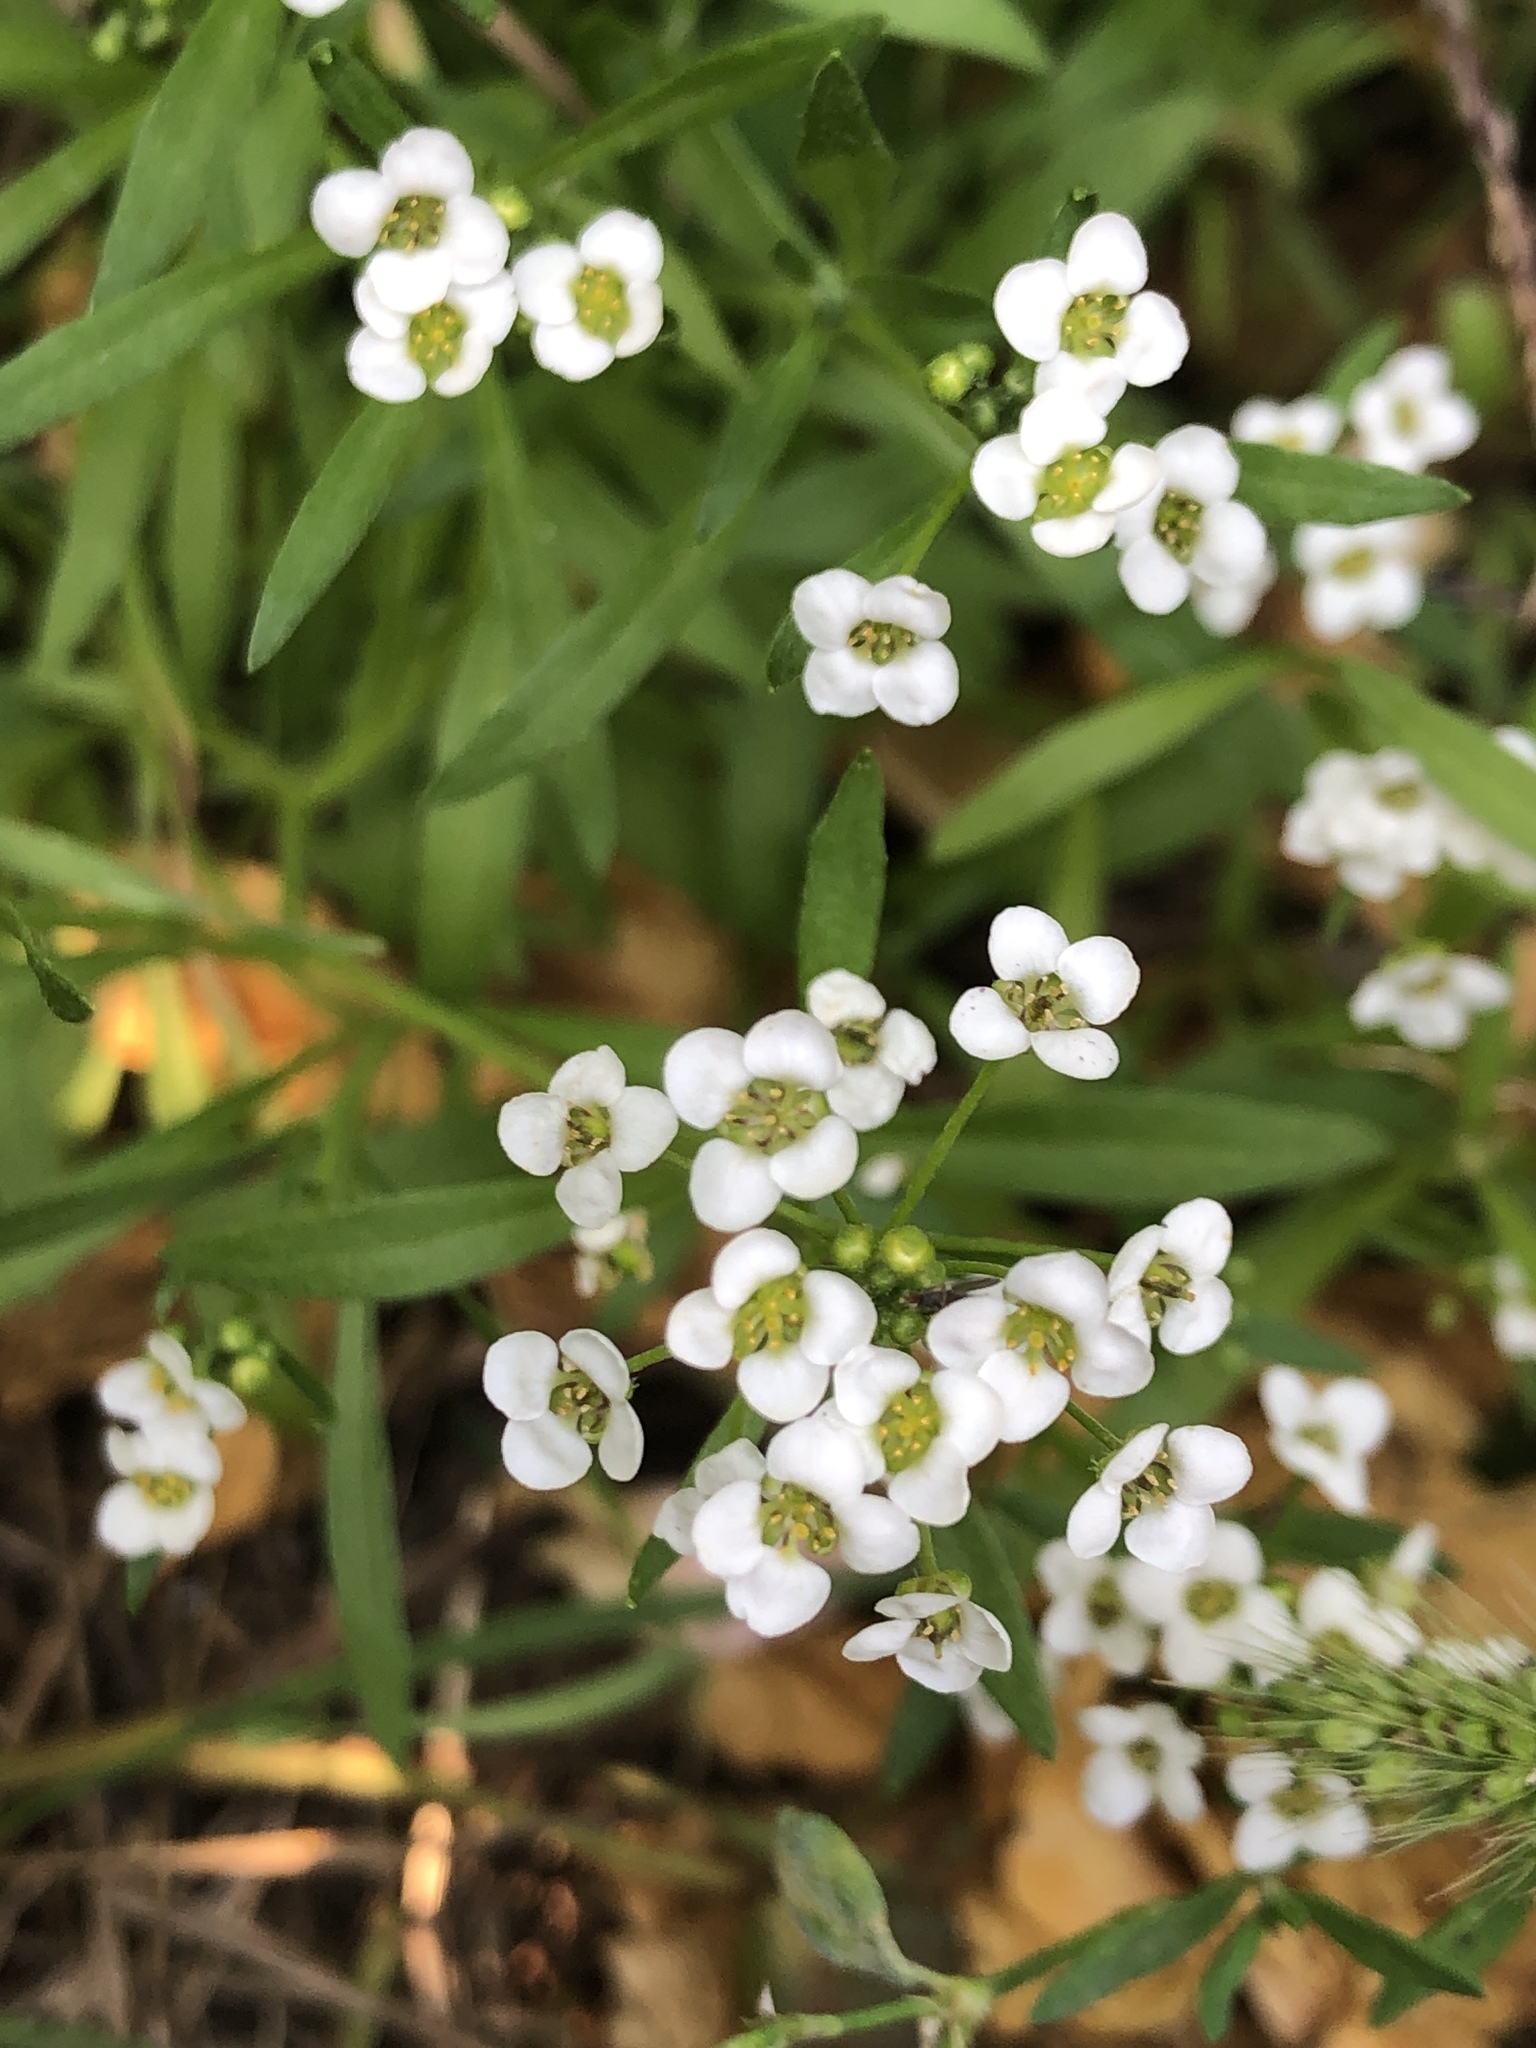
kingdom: Plantae
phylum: Tracheophyta
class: Magnoliopsida
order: Brassicales
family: Brassicaceae
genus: Lobularia
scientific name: Lobularia maritima
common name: Sweet alison
